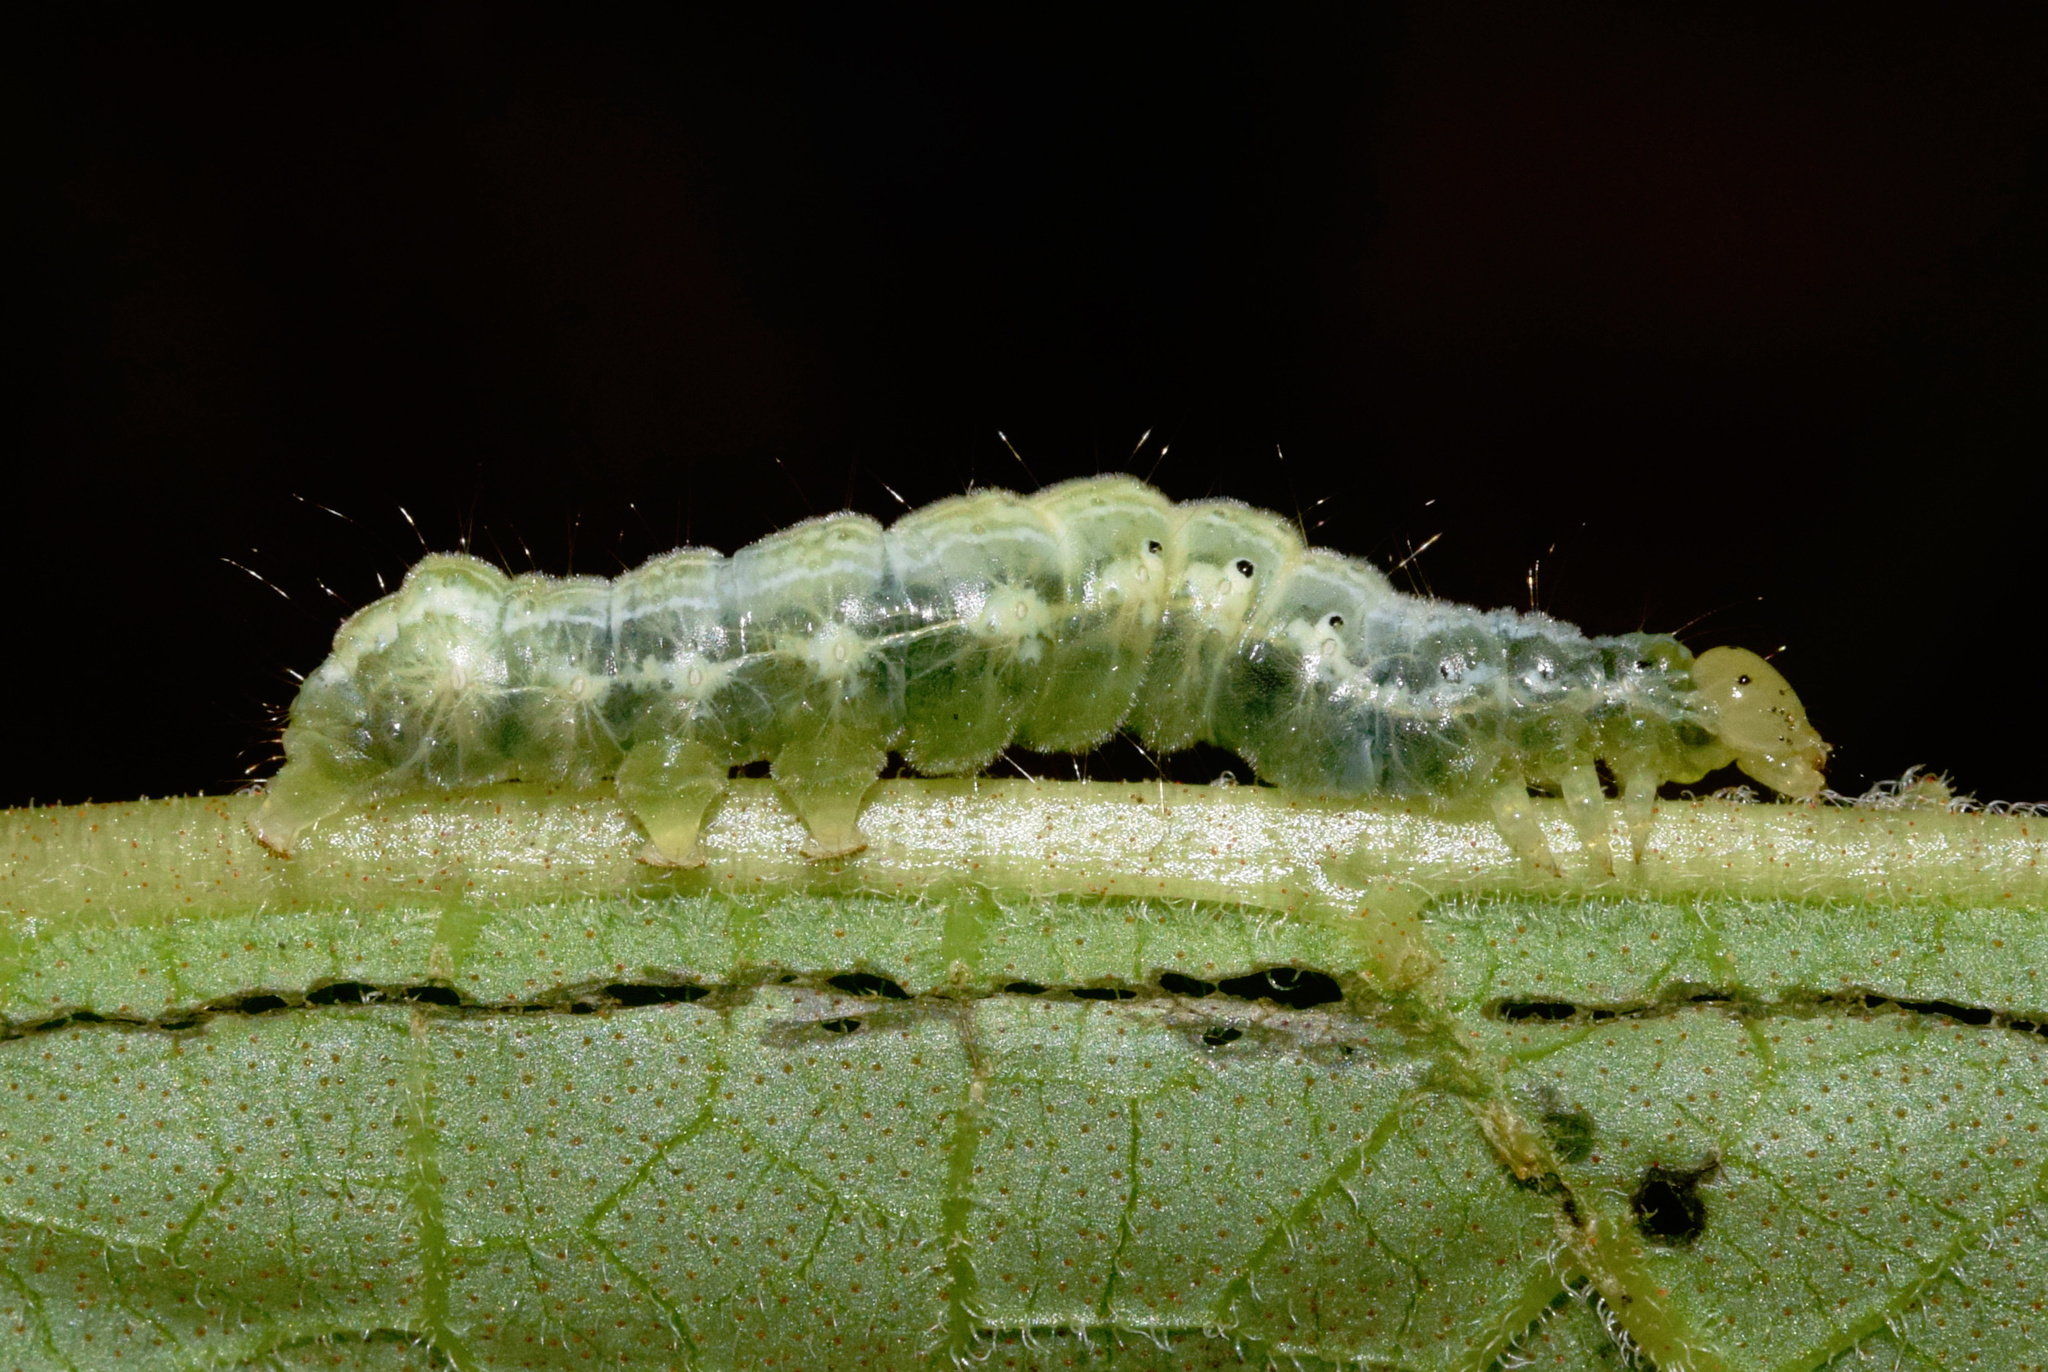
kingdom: Animalia
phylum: Arthropoda
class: Insecta
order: Lepidoptera
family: Noctuidae
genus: Trichoplusia
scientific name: Trichoplusia roseofasciata
